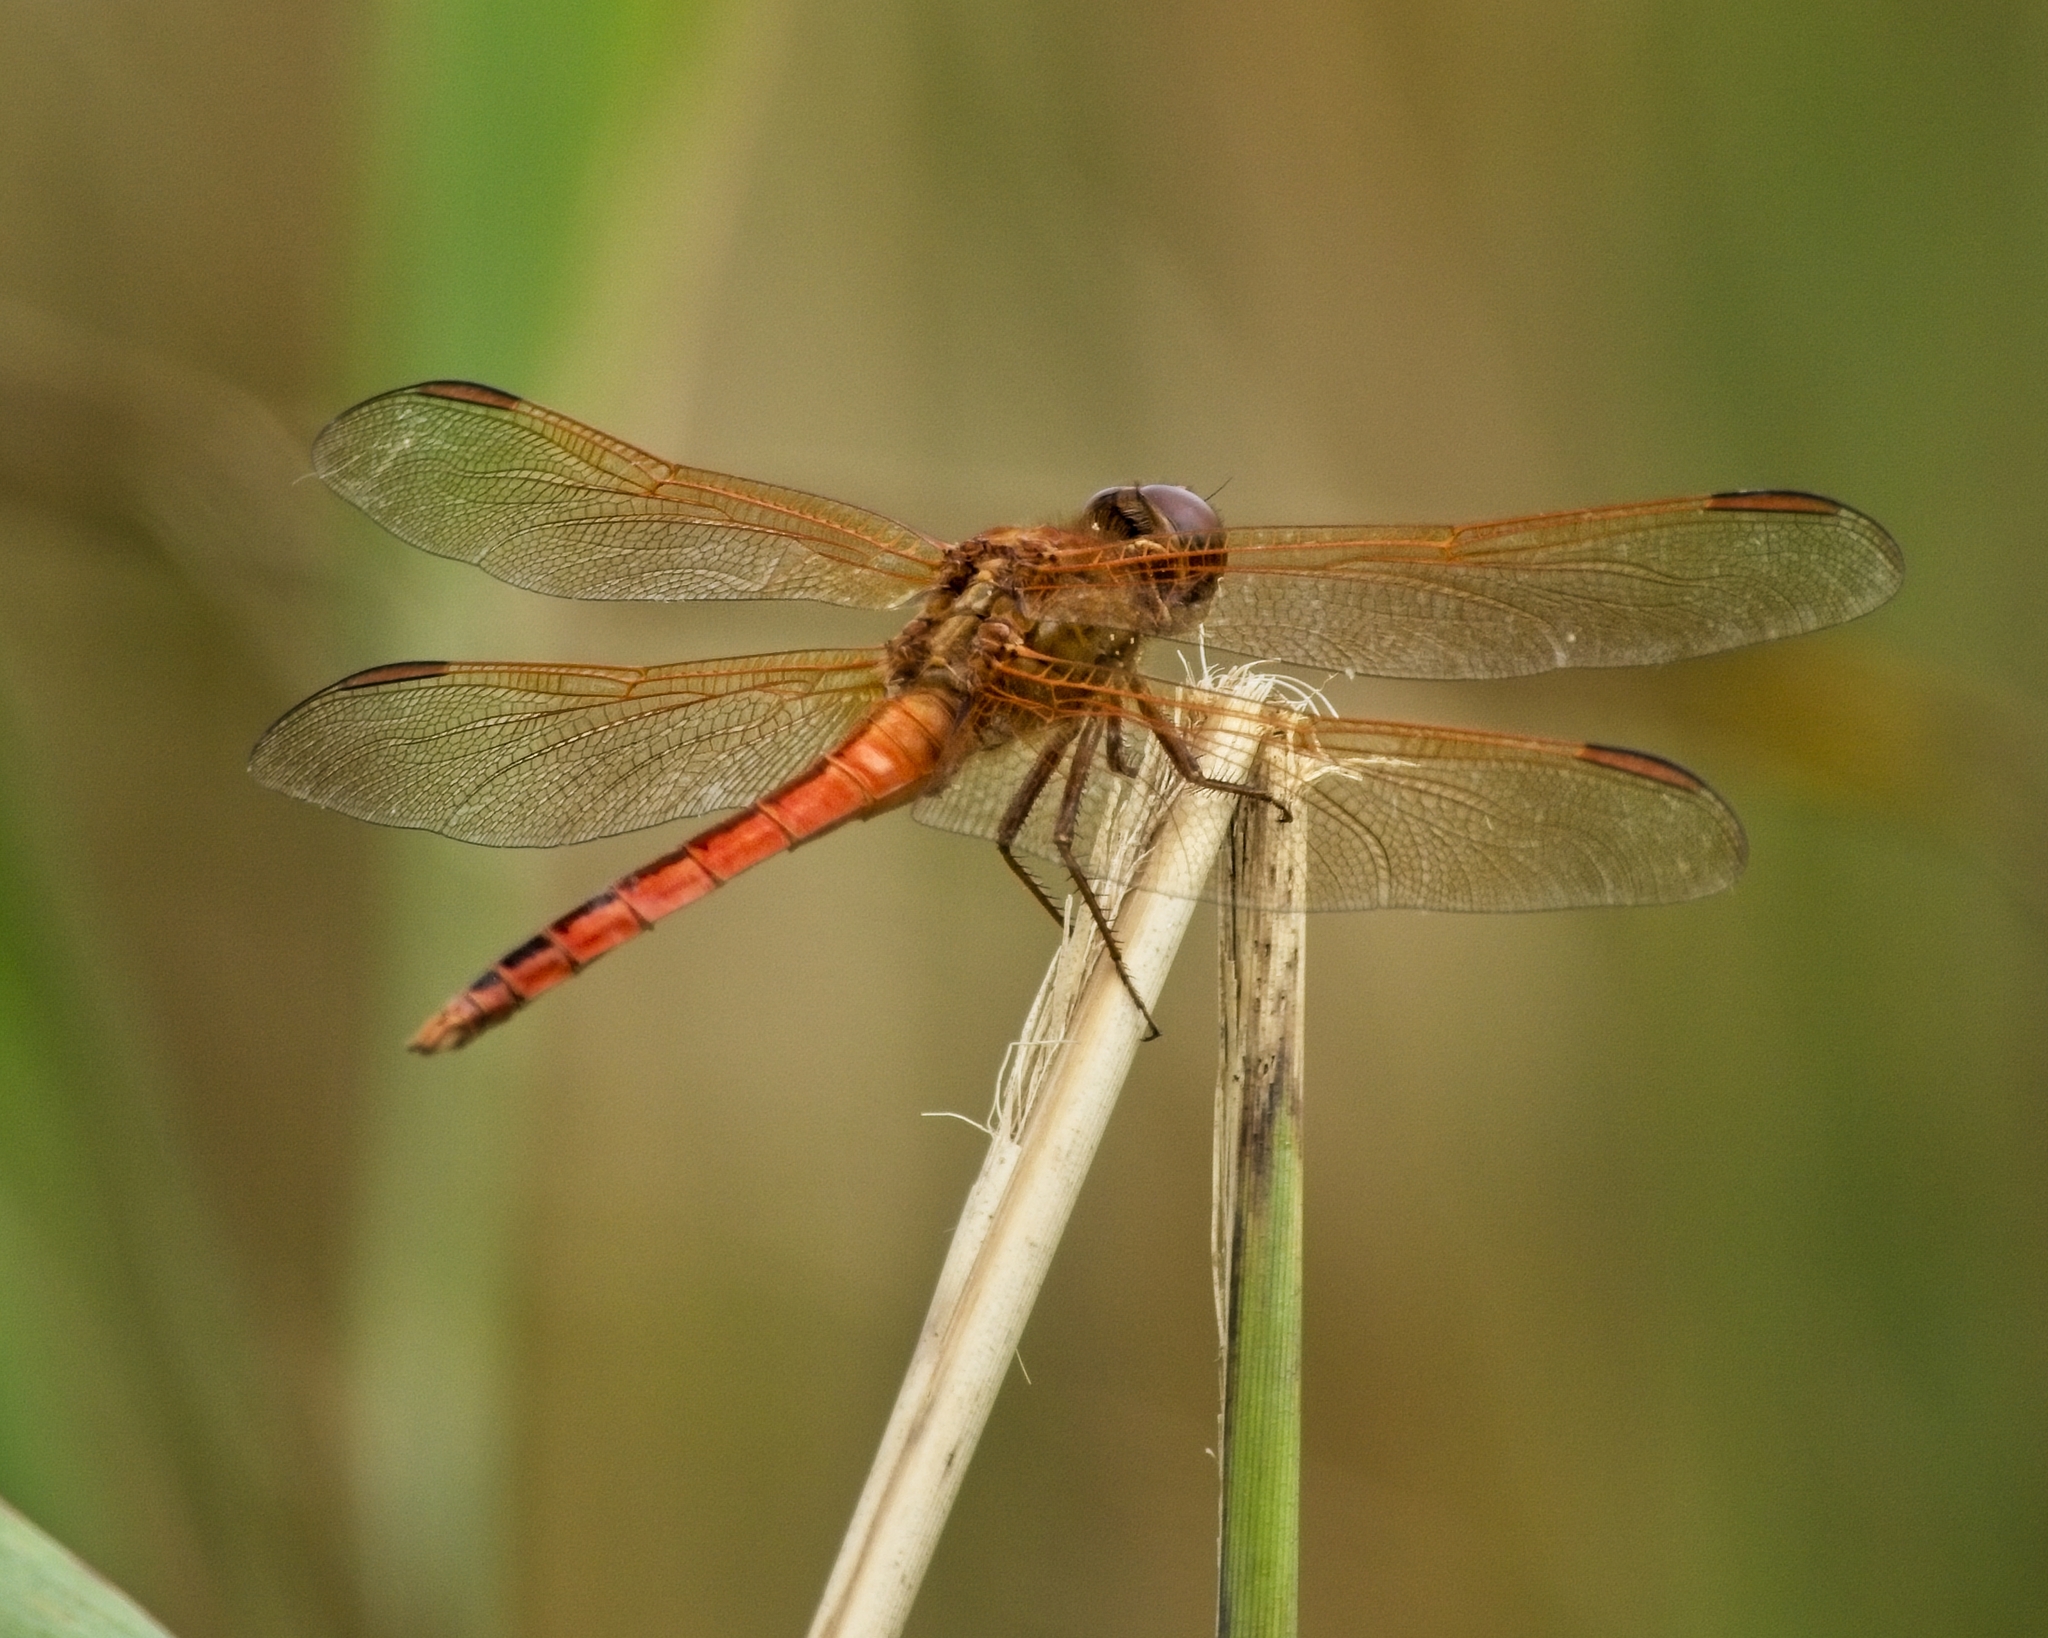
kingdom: Animalia
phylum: Arthropoda
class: Insecta
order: Odonata
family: Libellulidae
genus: Libellula
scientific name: Libellula needhami
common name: Needham's skimmer
